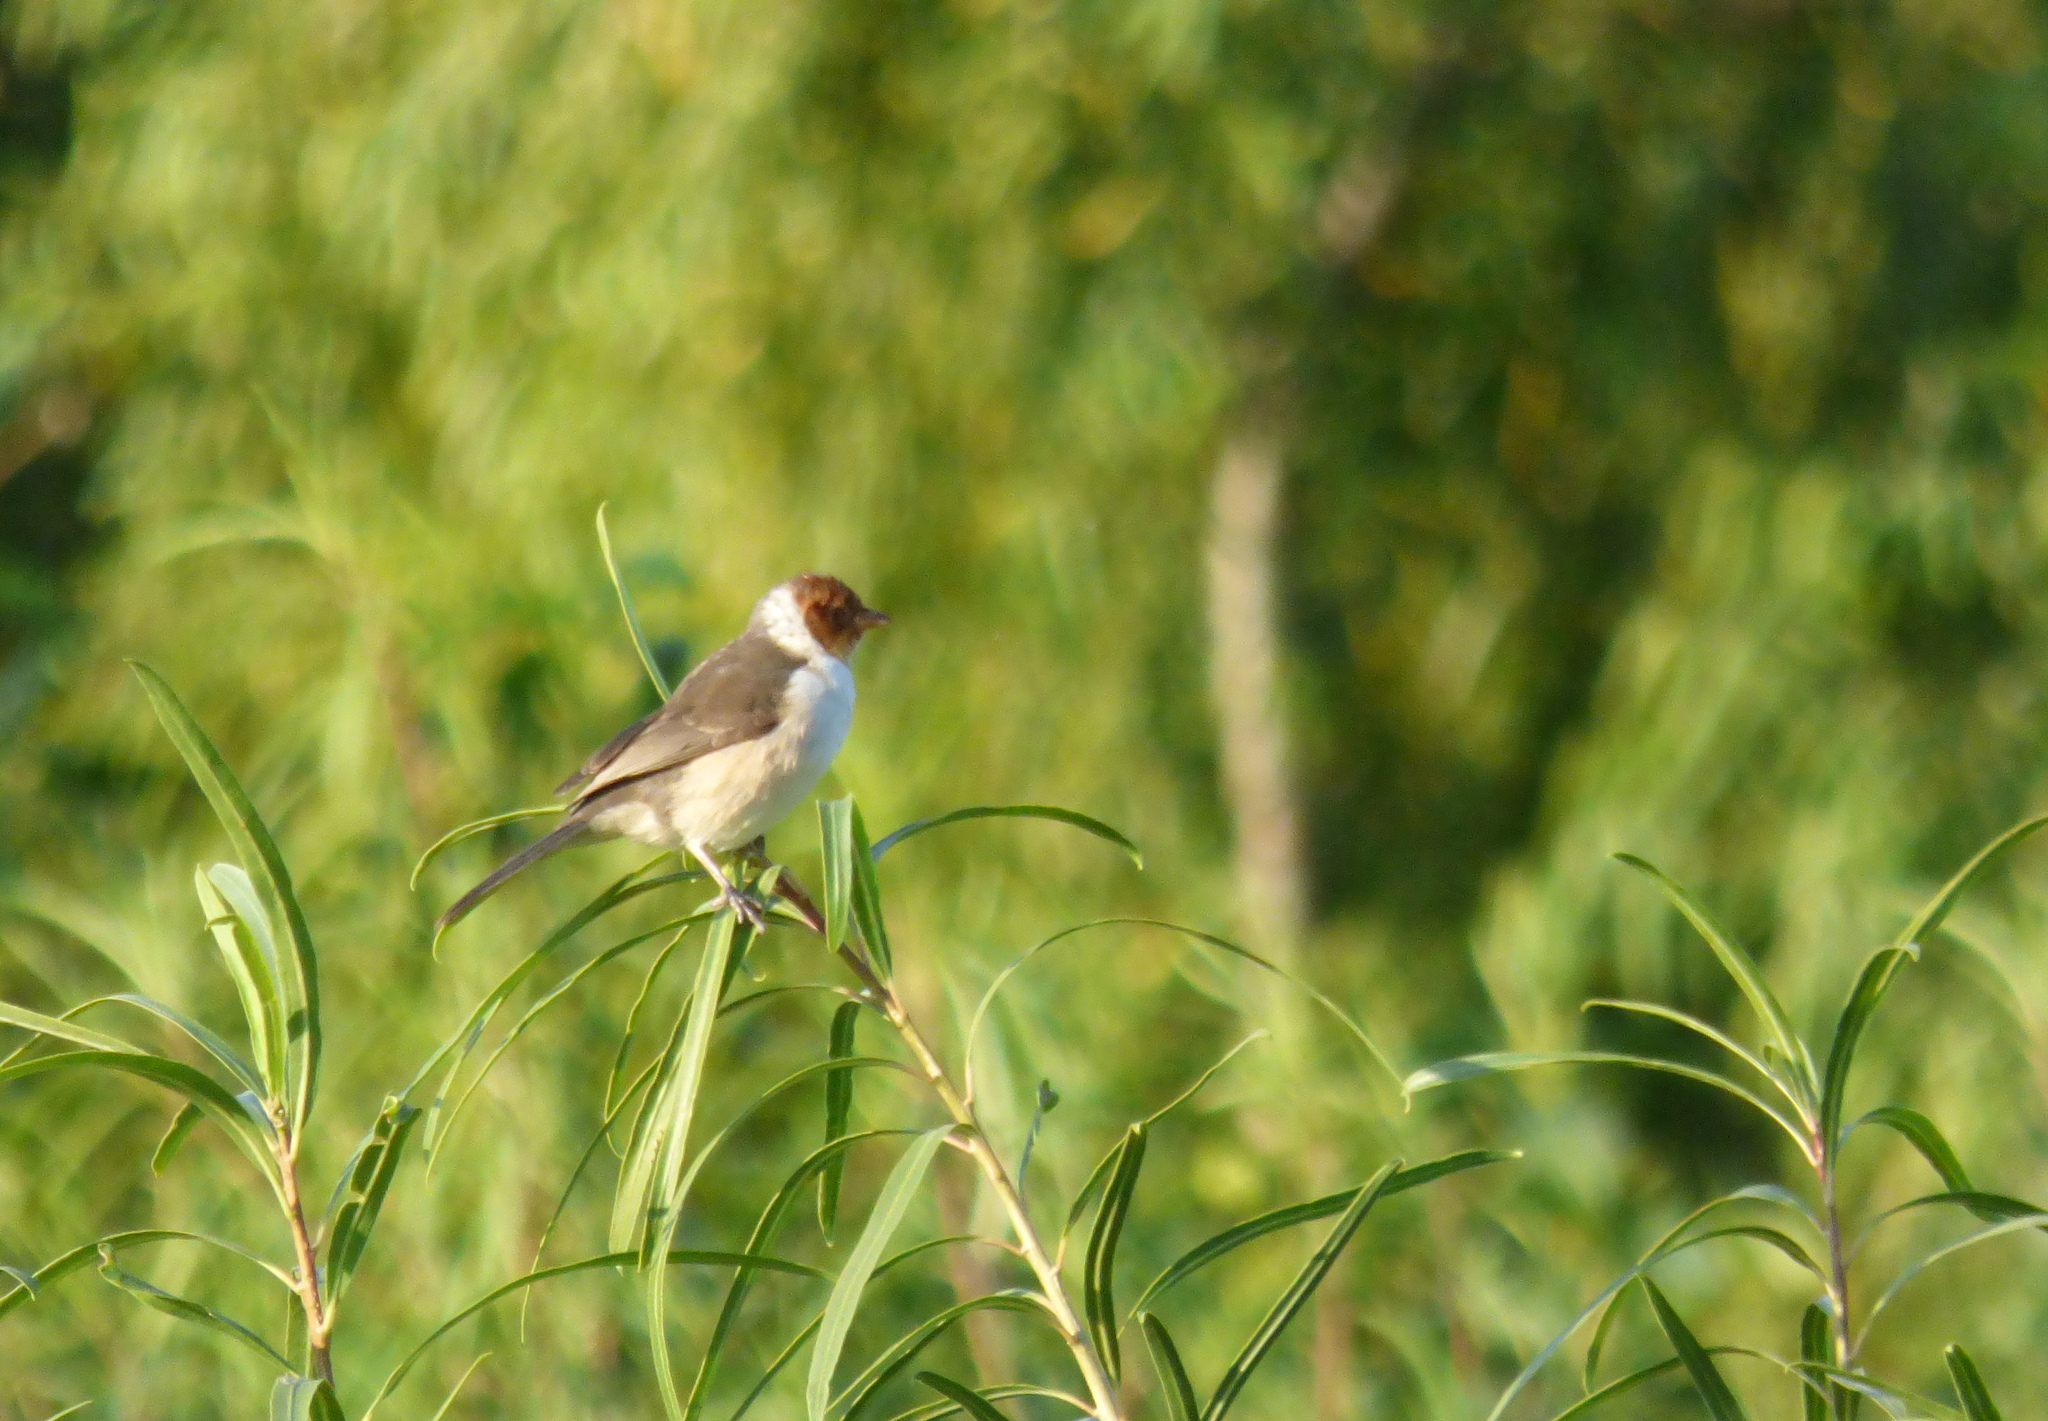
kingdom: Animalia
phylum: Chordata
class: Aves
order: Passeriformes
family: Thraupidae
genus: Paroaria
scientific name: Paroaria capitata
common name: Yellow-billed cardinal
